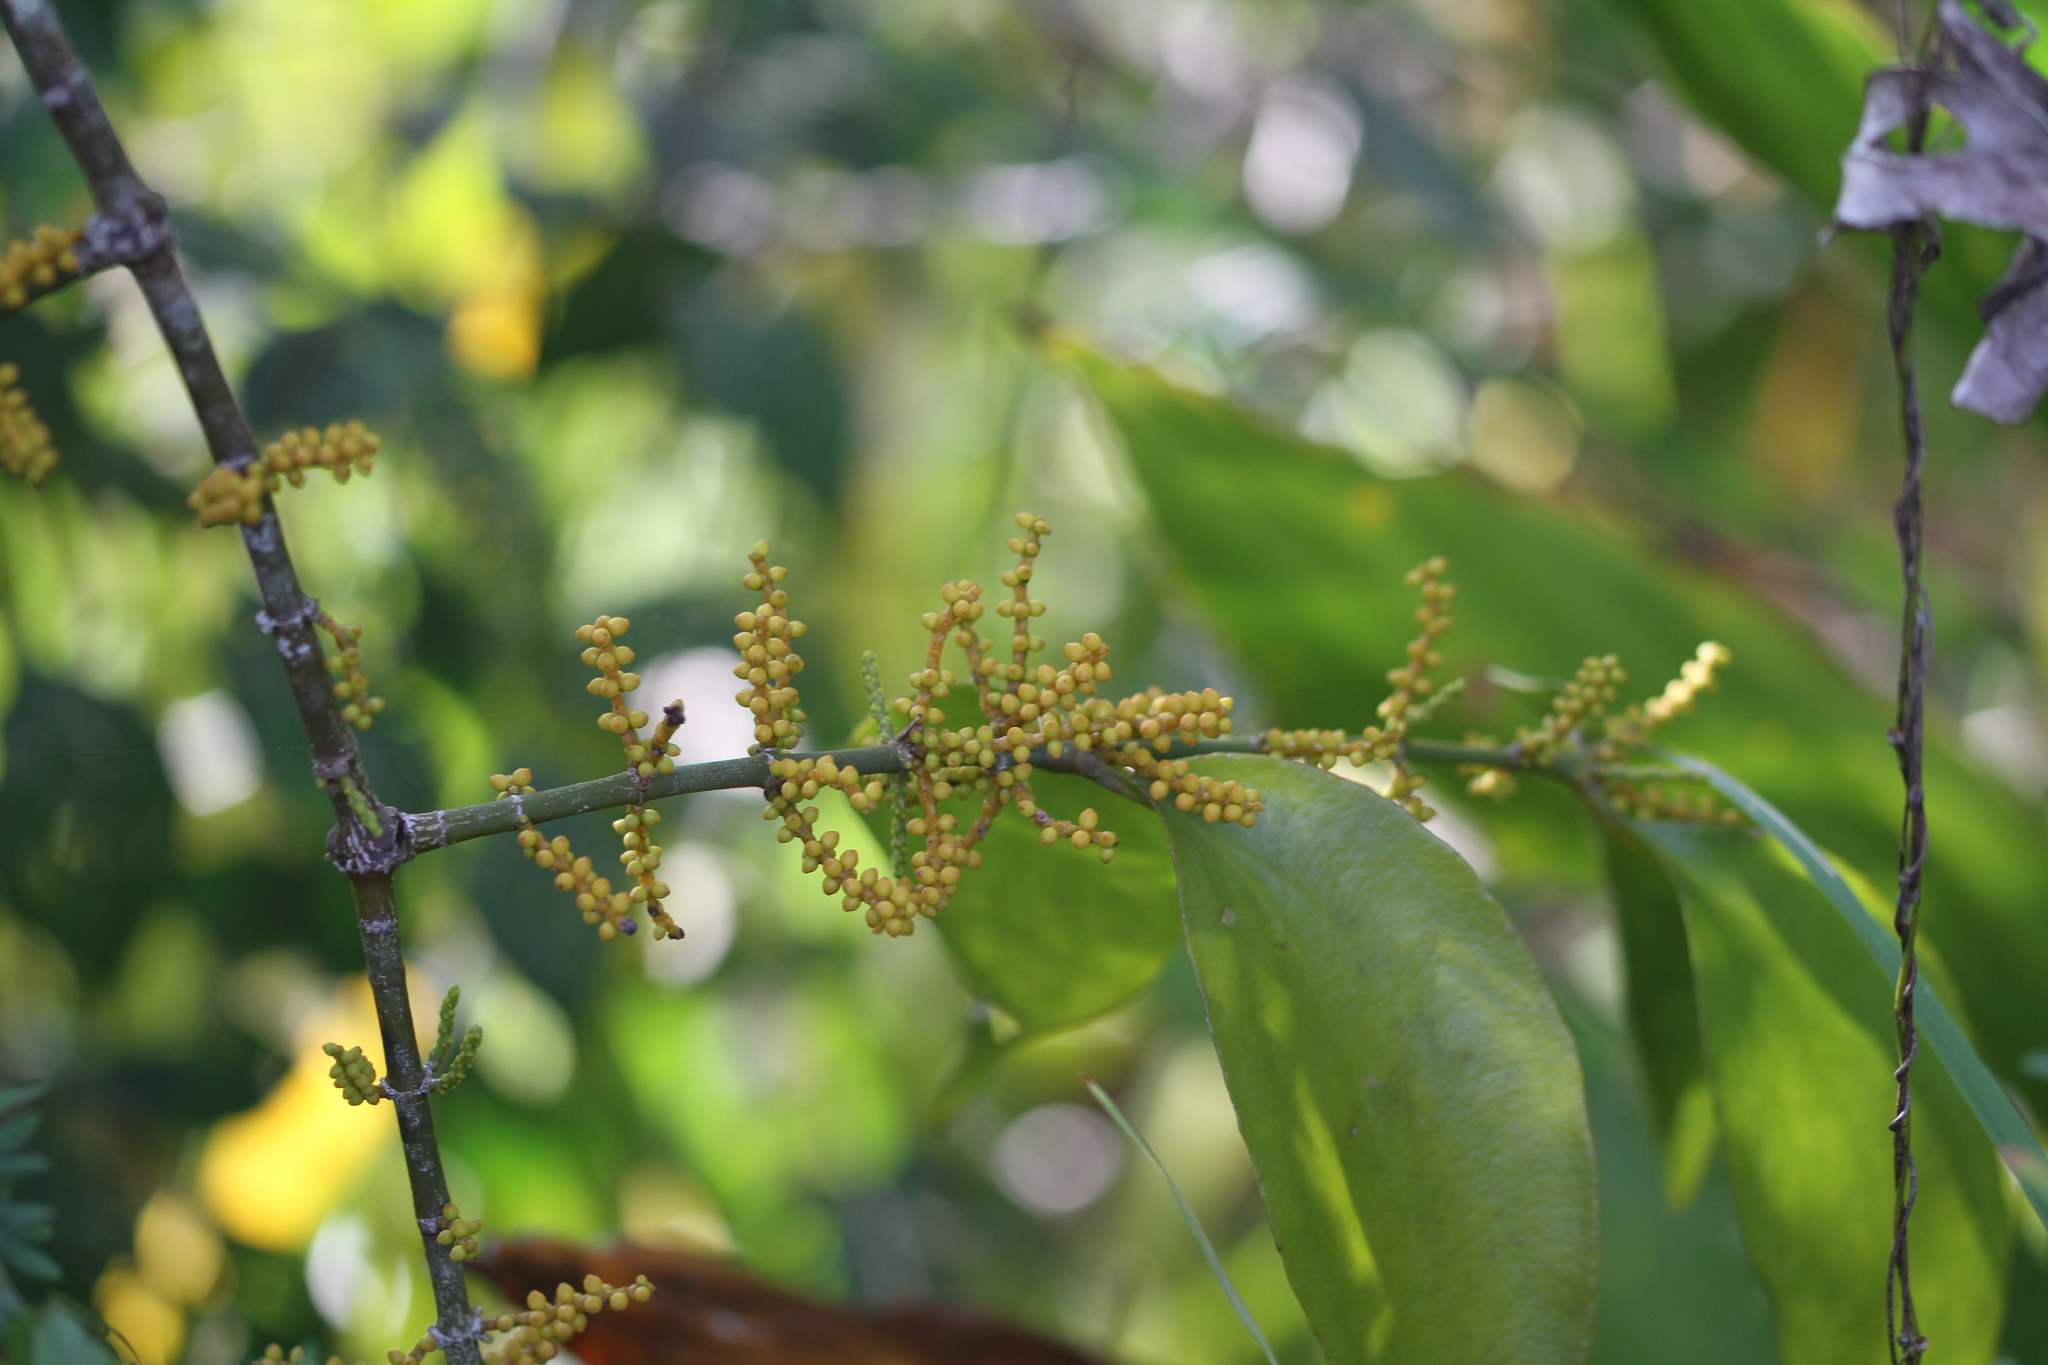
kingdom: Plantae
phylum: Tracheophyta
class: Magnoliopsida
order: Santalales
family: Viscaceae
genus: Phoradendron
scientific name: Phoradendron crassifolium
